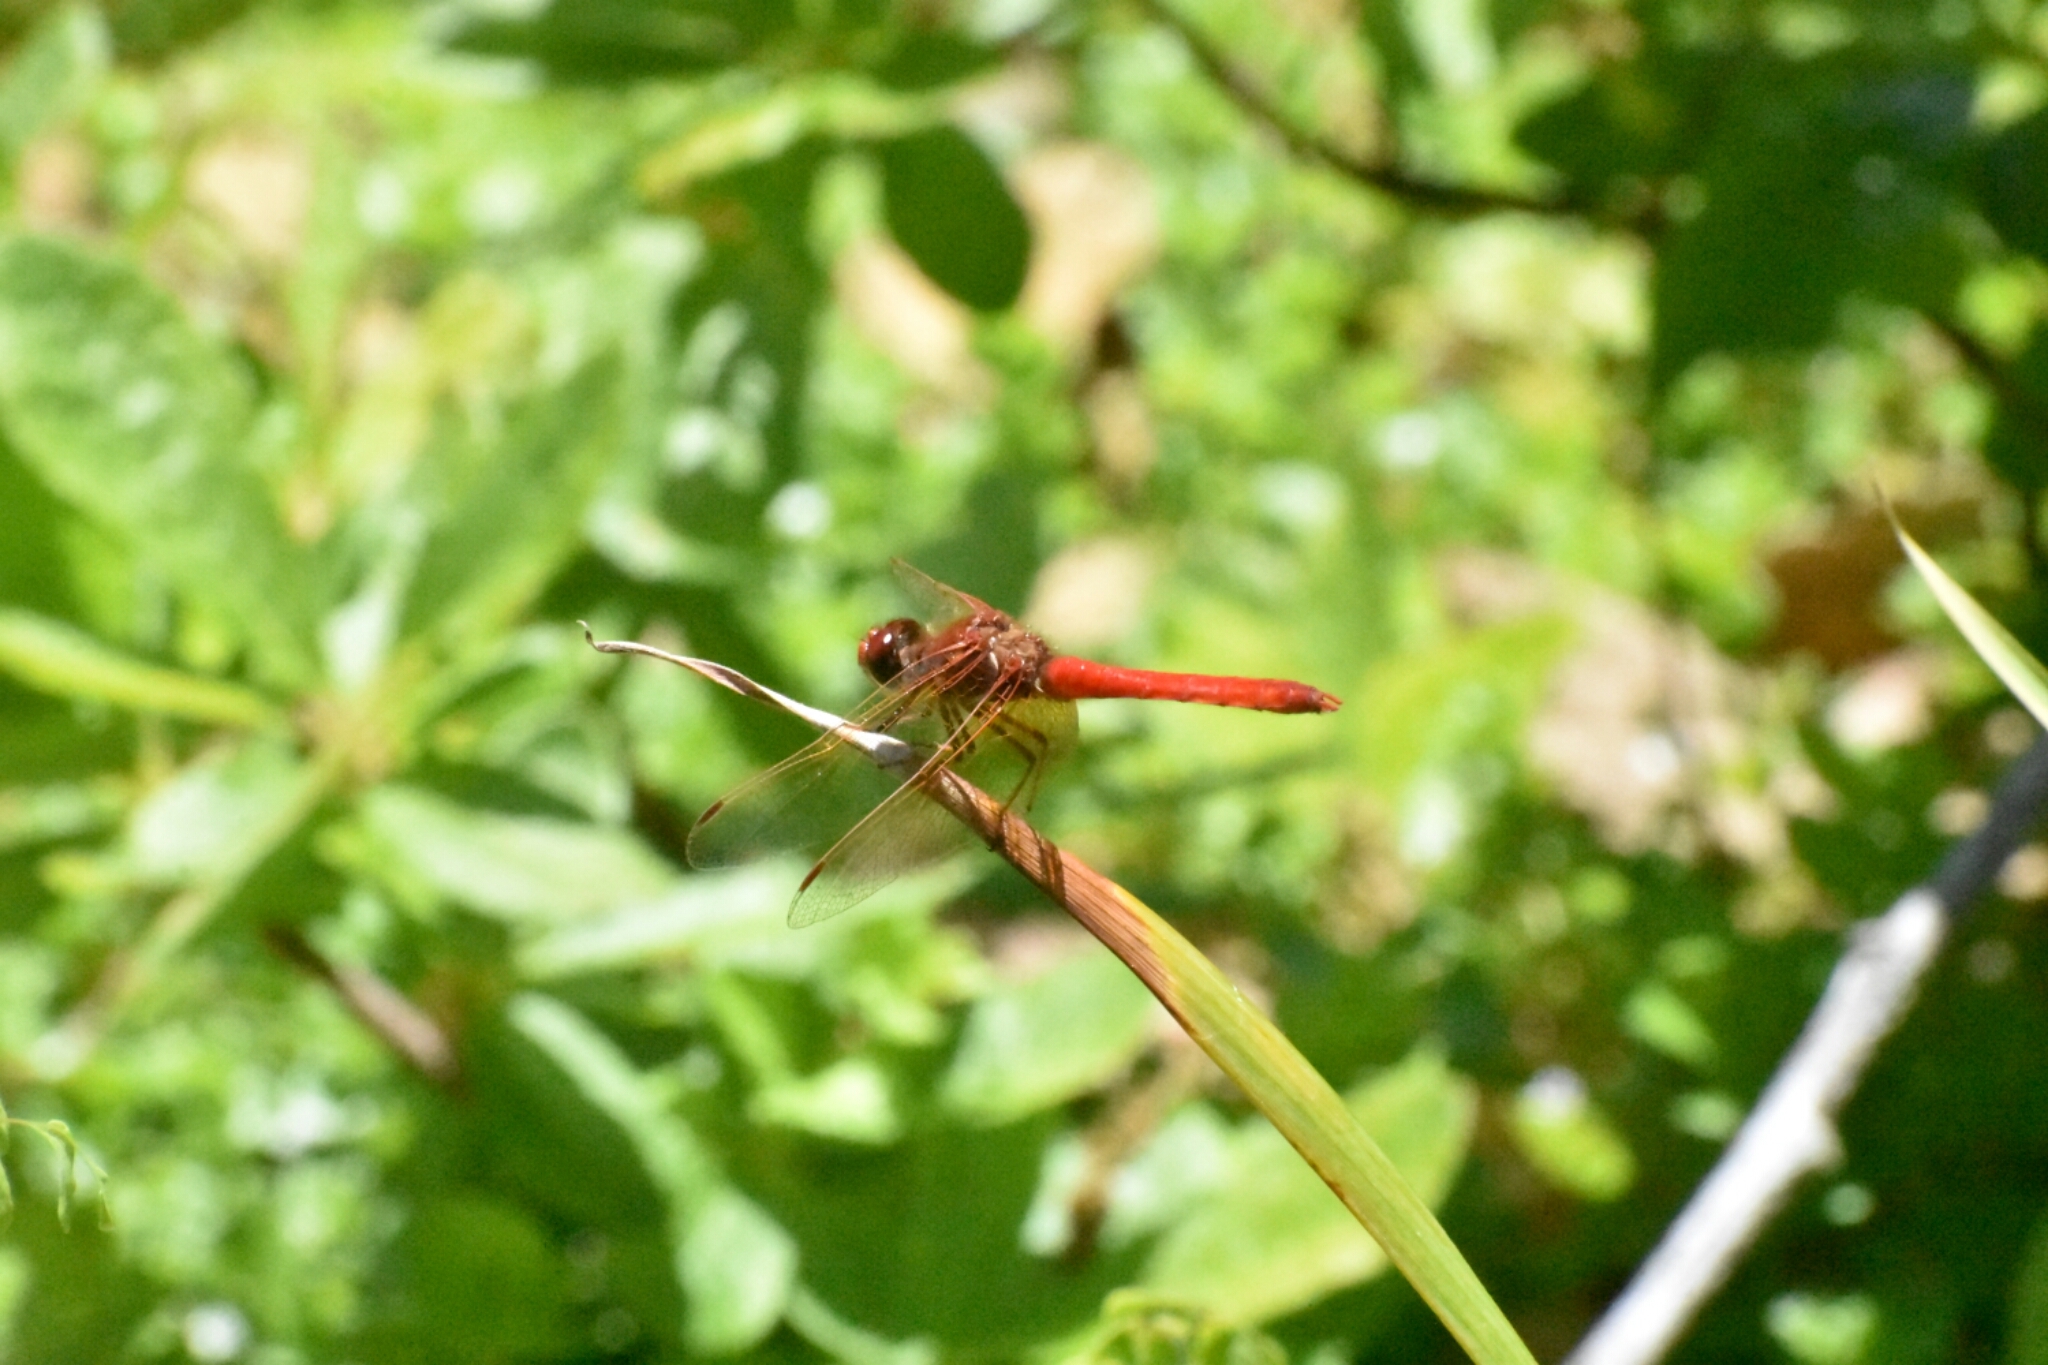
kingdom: Animalia
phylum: Arthropoda
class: Insecta
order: Odonata
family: Libellulidae
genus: Sympetrum
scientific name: Sympetrum illotum
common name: Cardinal meadowhawk
